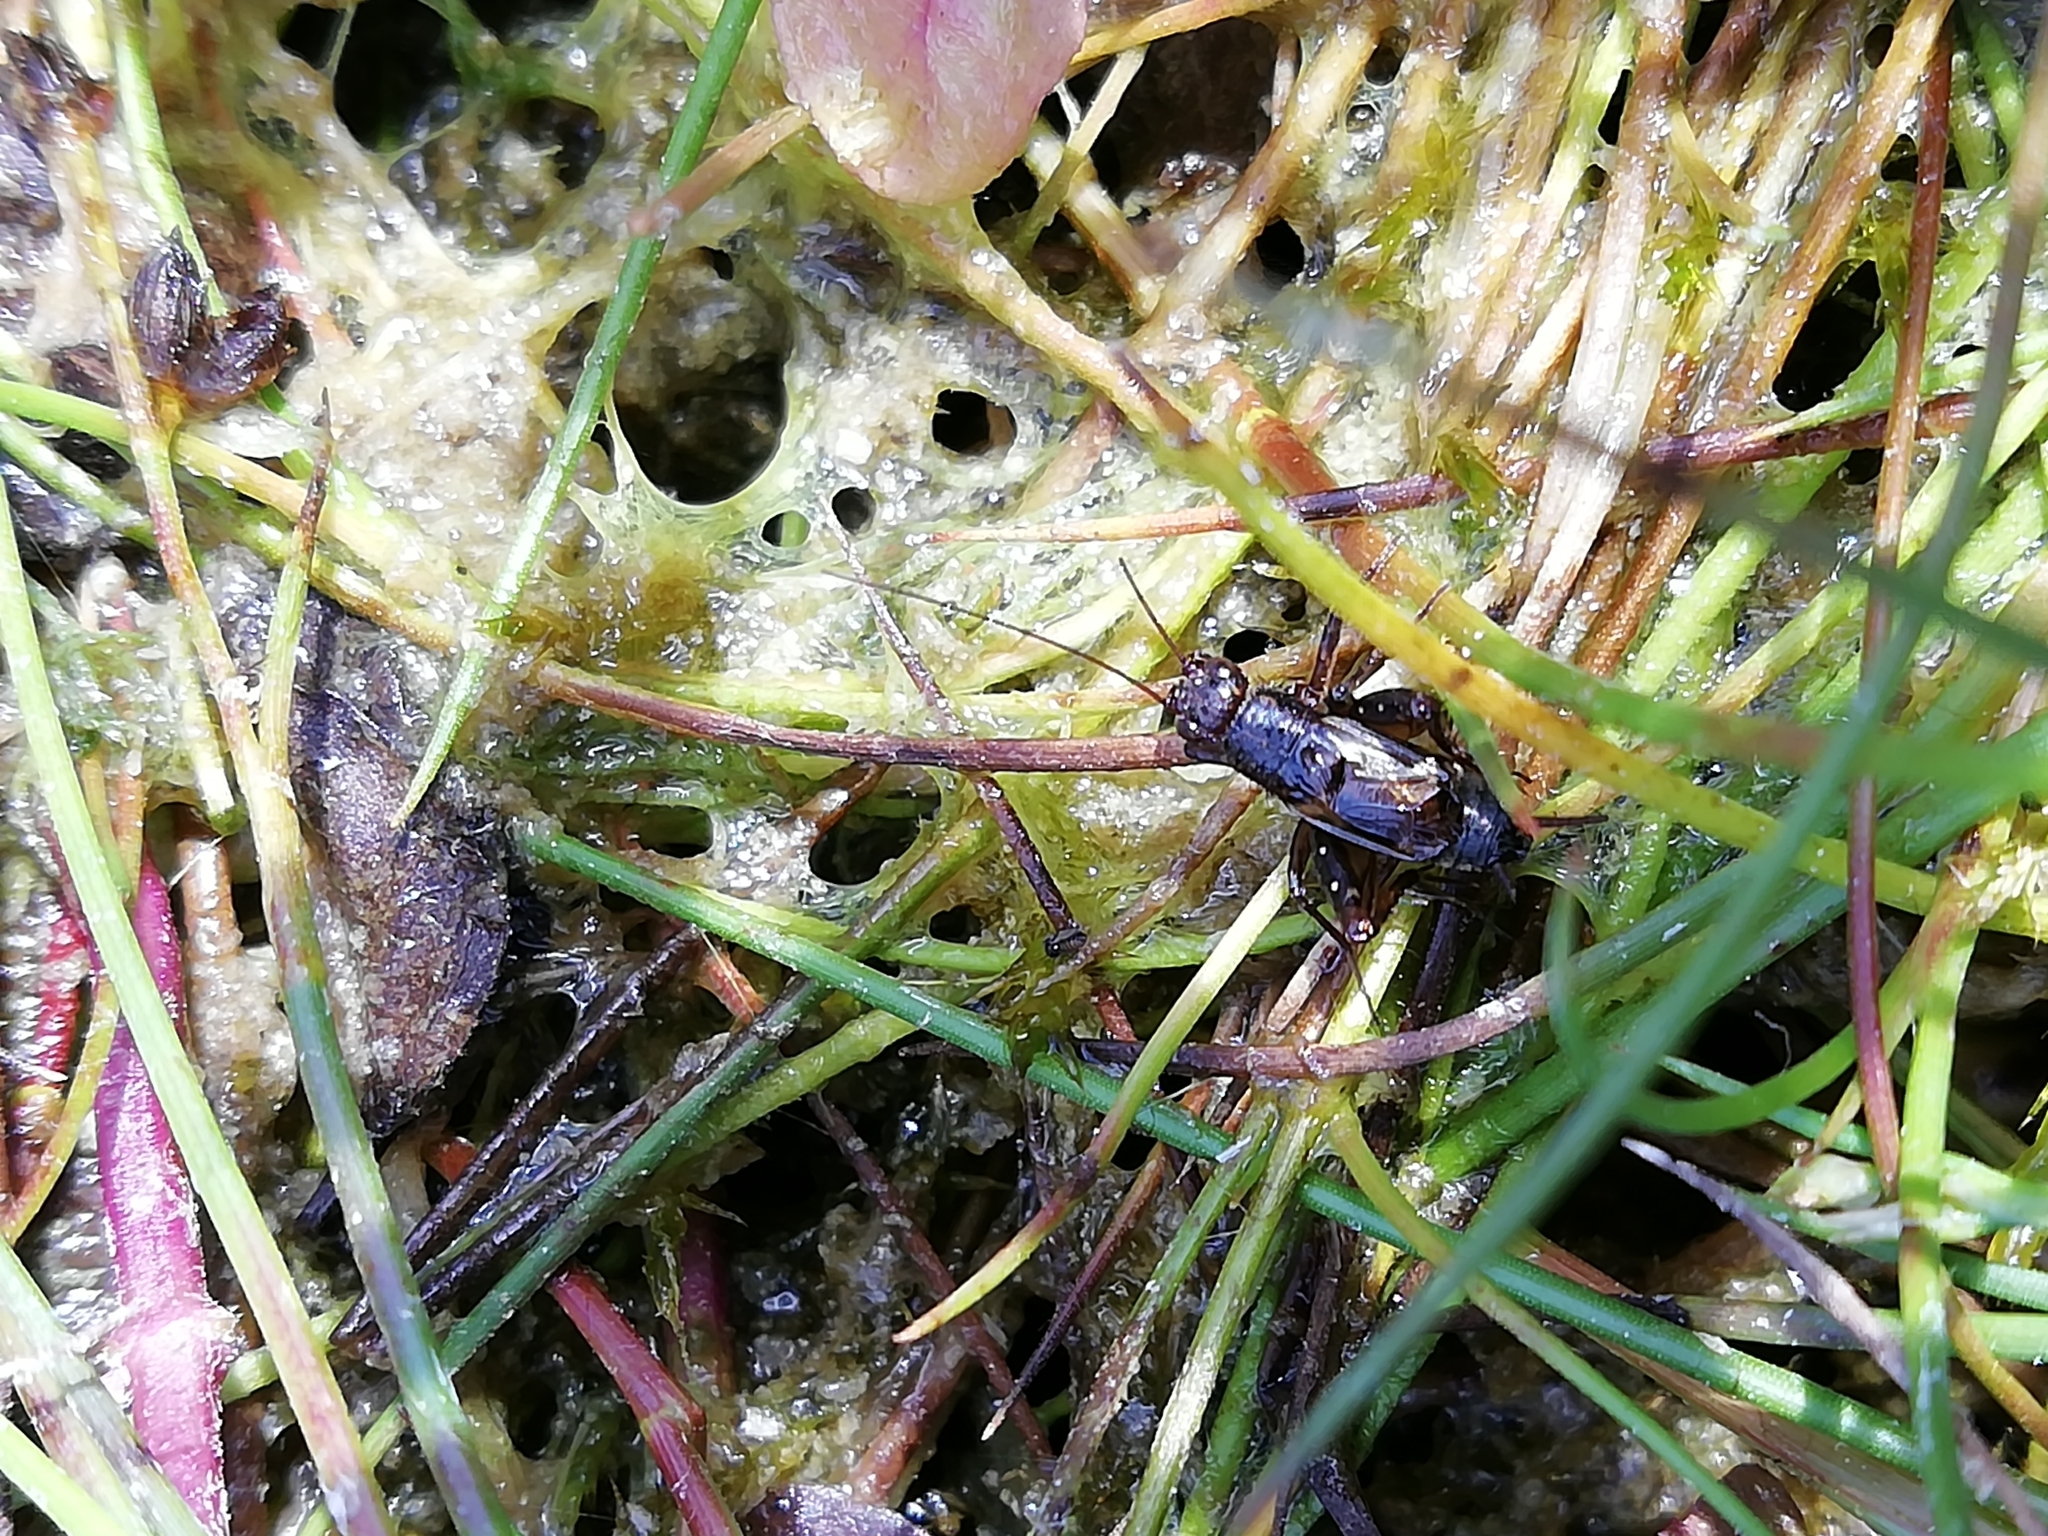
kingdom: Animalia
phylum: Arthropoda
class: Insecta
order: Orthoptera
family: Trigonidiidae
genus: Pteronemobius
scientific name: Pteronemobius heydenii
